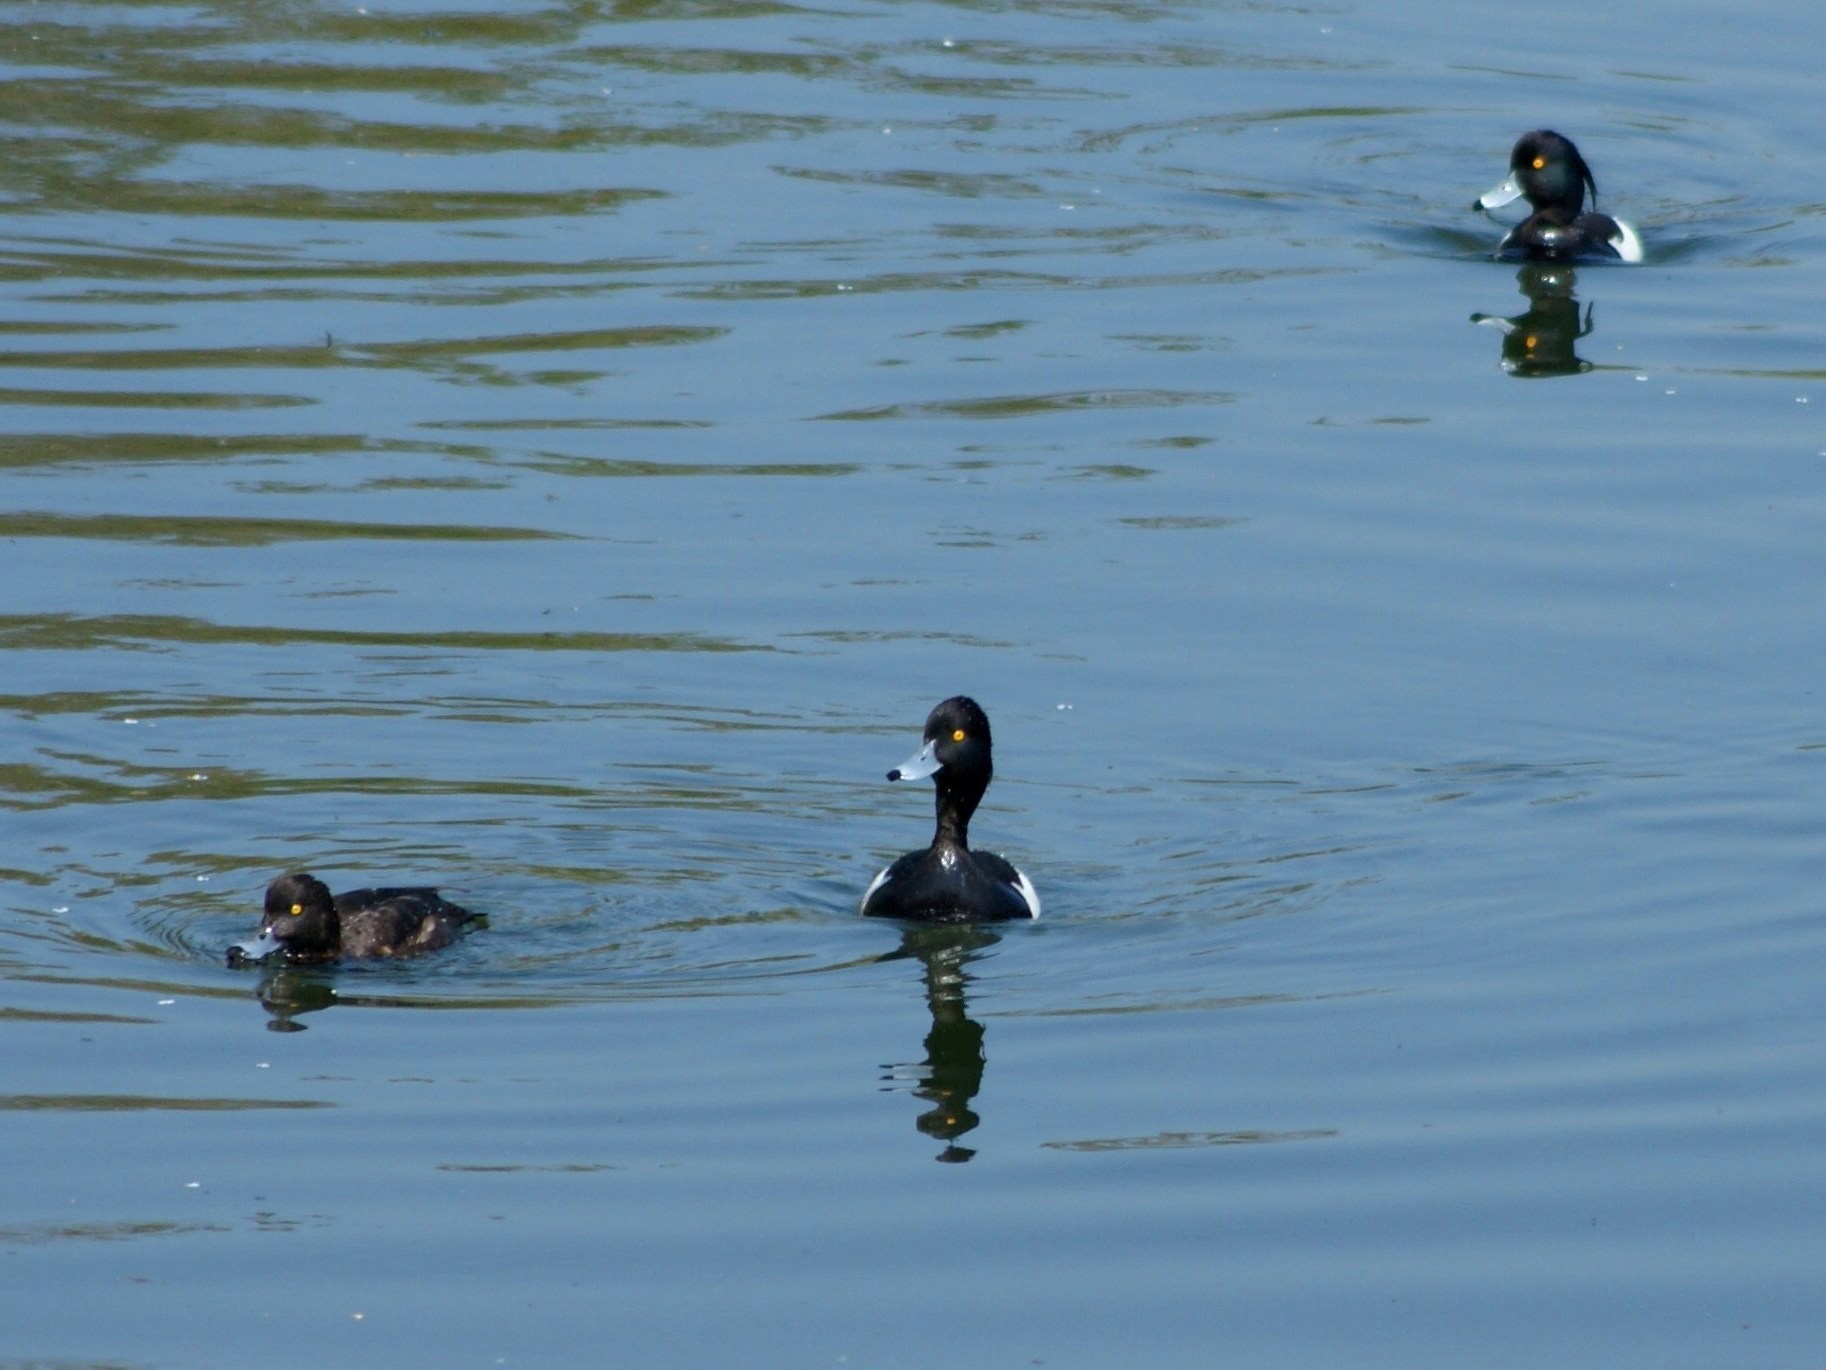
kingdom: Animalia
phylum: Chordata
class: Aves
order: Anseriformes
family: Anatidae
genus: Aythya
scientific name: Aythya fuligula
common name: Tufted duck
